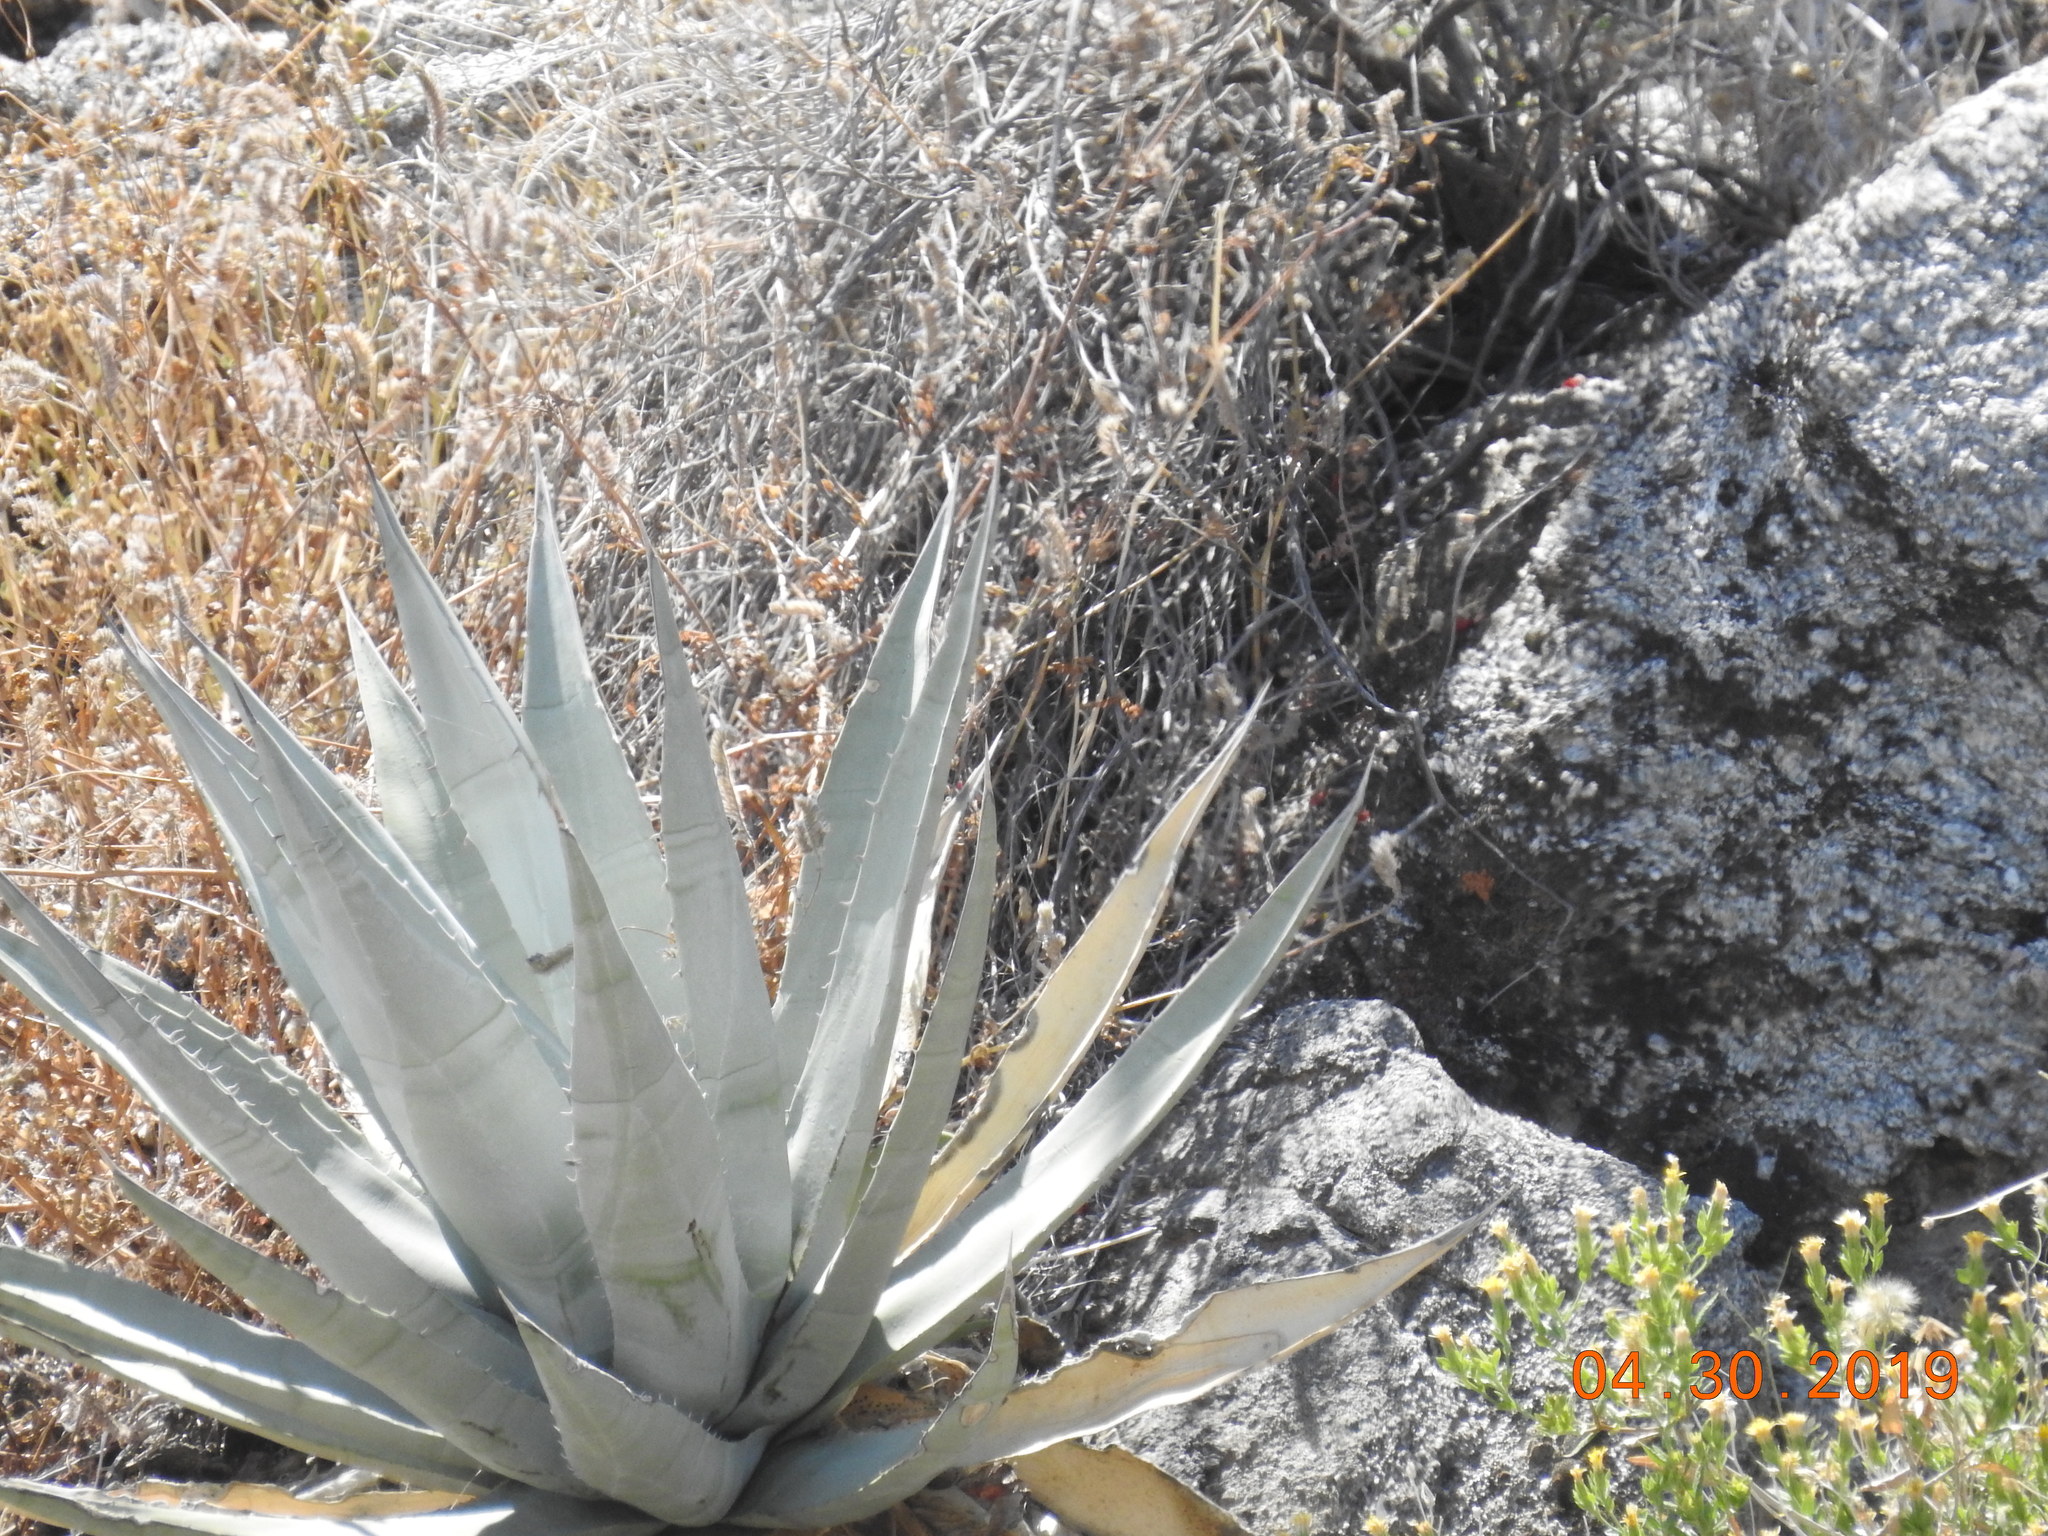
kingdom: Plantae
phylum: Tracheophyta
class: Liliopsida
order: Asparagales
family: Asparagaceae
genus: Agave
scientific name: Agave deserti
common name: Desert agave
